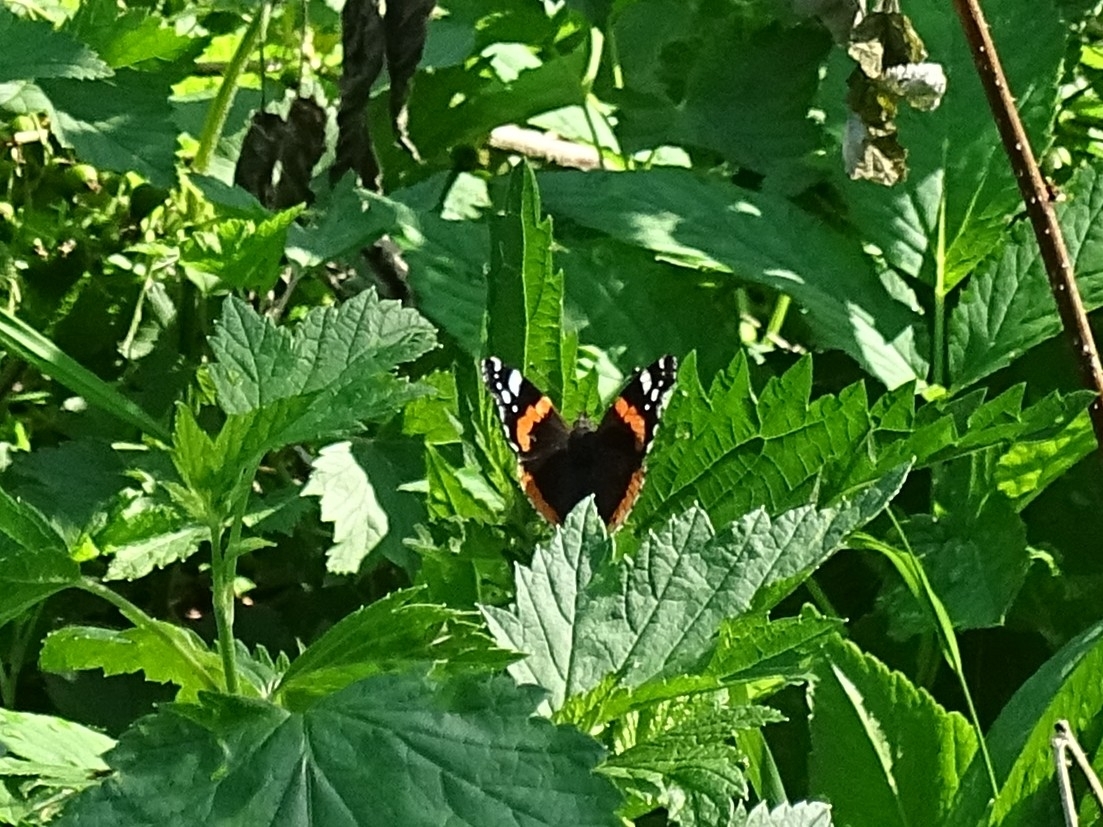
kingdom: Animalia
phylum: Arthropoda
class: Insecta
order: Lepidoptera
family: Nymphalidae
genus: Vanessa
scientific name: Vanessa atalanta
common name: Red admiral
